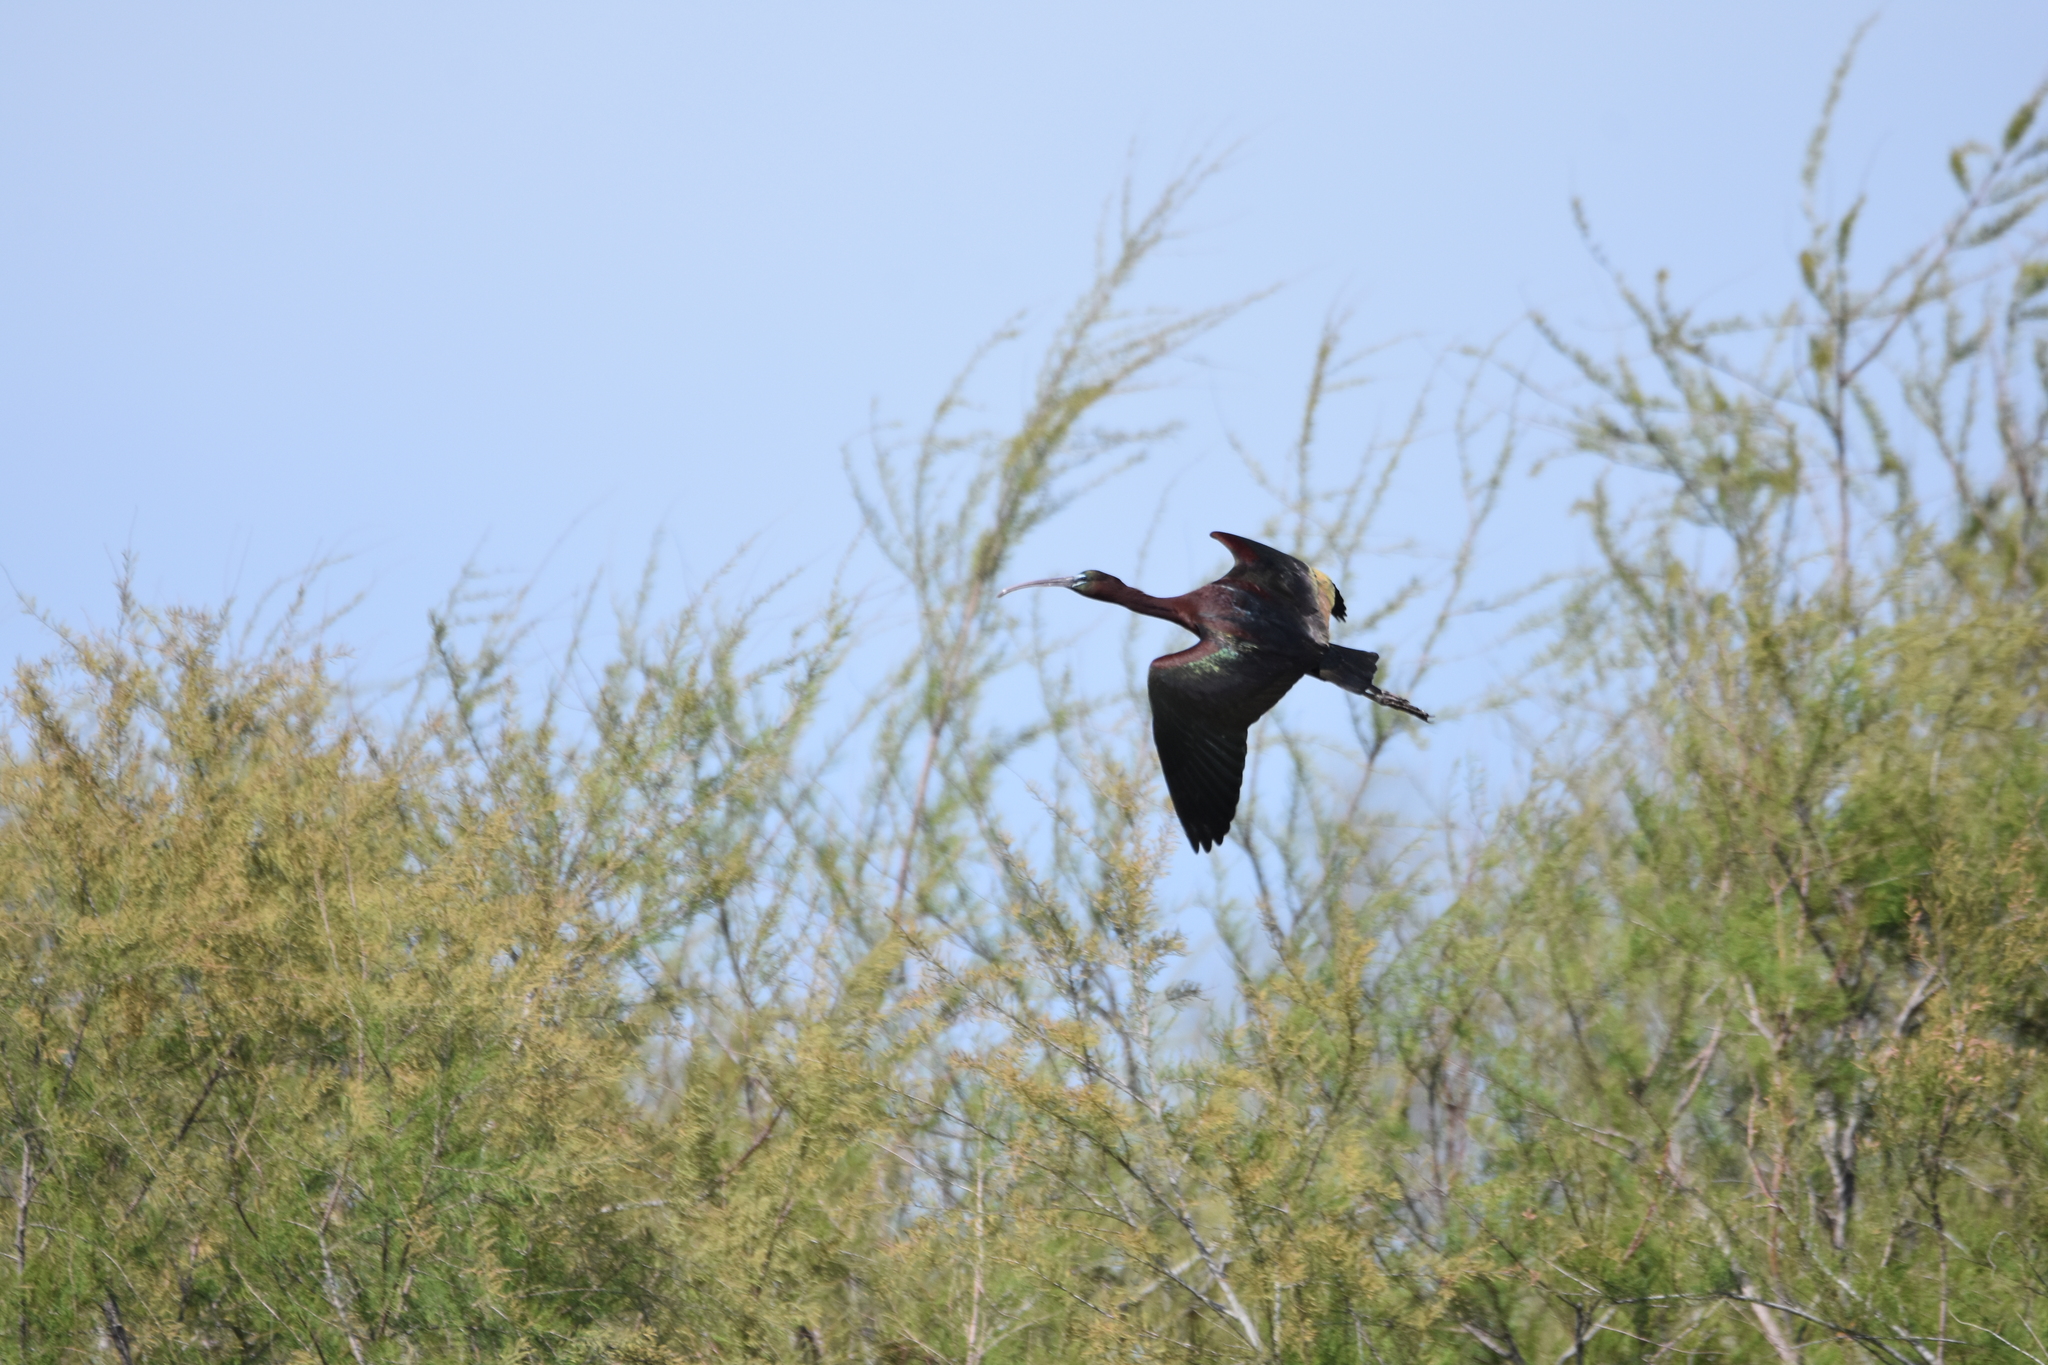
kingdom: Animalia
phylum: Chordata
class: Aves
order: Pelecaniformes
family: Threskiornithidae
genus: Plegadis
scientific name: Plegadis falcinellus
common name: Glossy ibis
